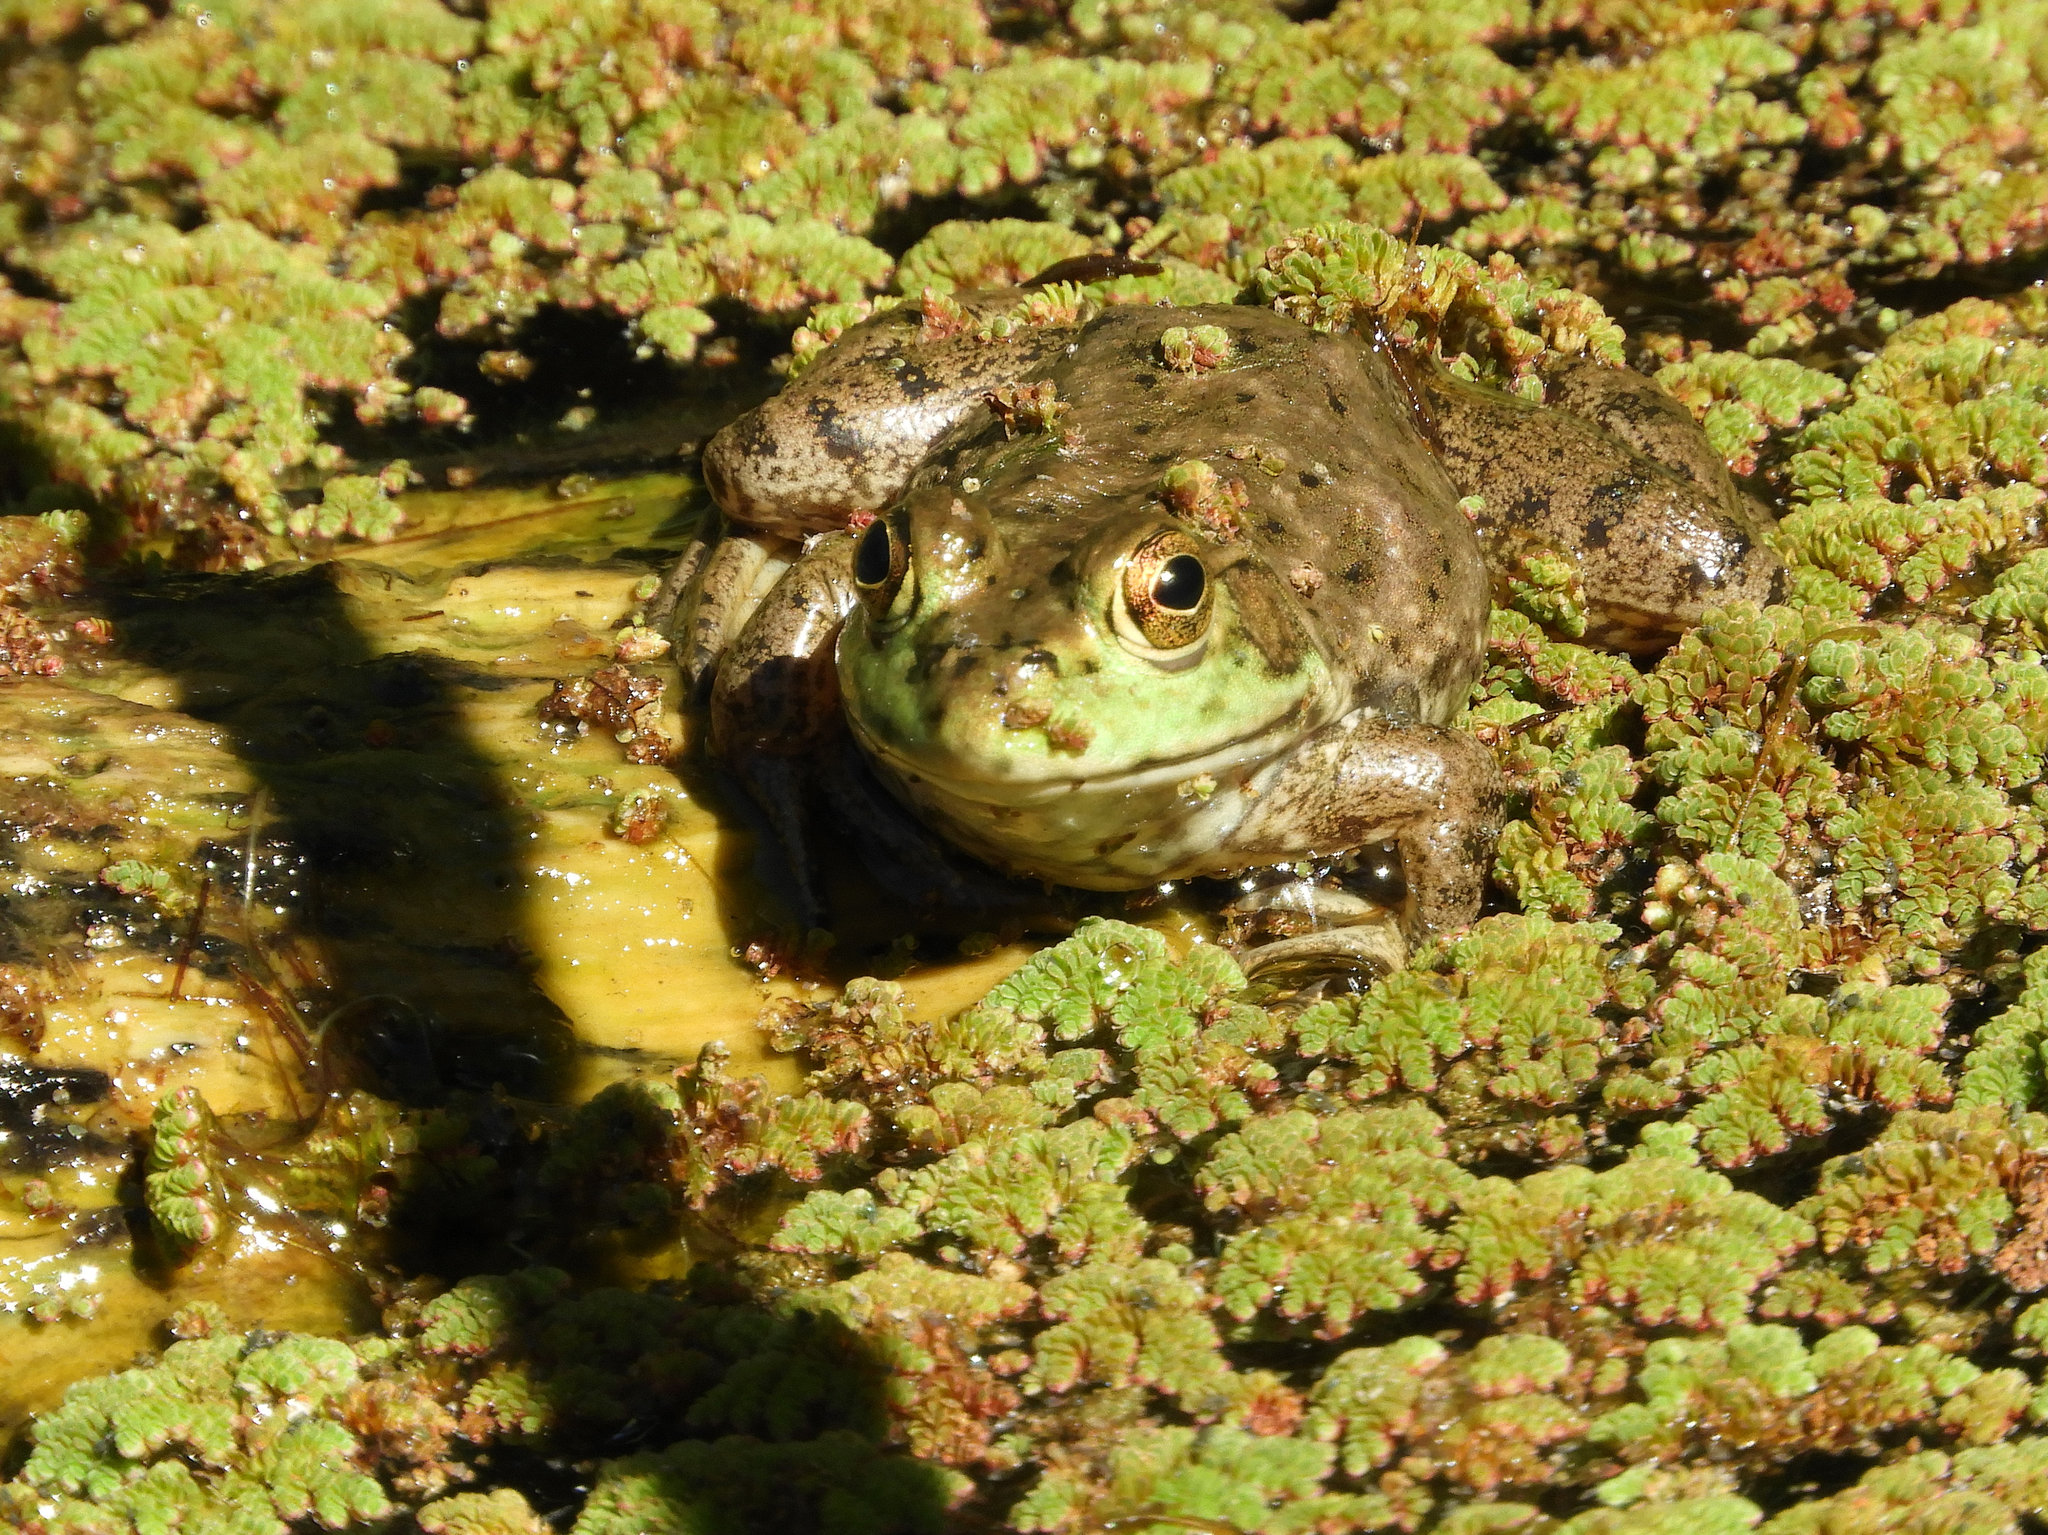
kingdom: Animalia
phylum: Chordata
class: Amphibia
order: Anura
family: Ranidae
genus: Lithobates
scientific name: Lithobates catesbeianus
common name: American bullfrog
